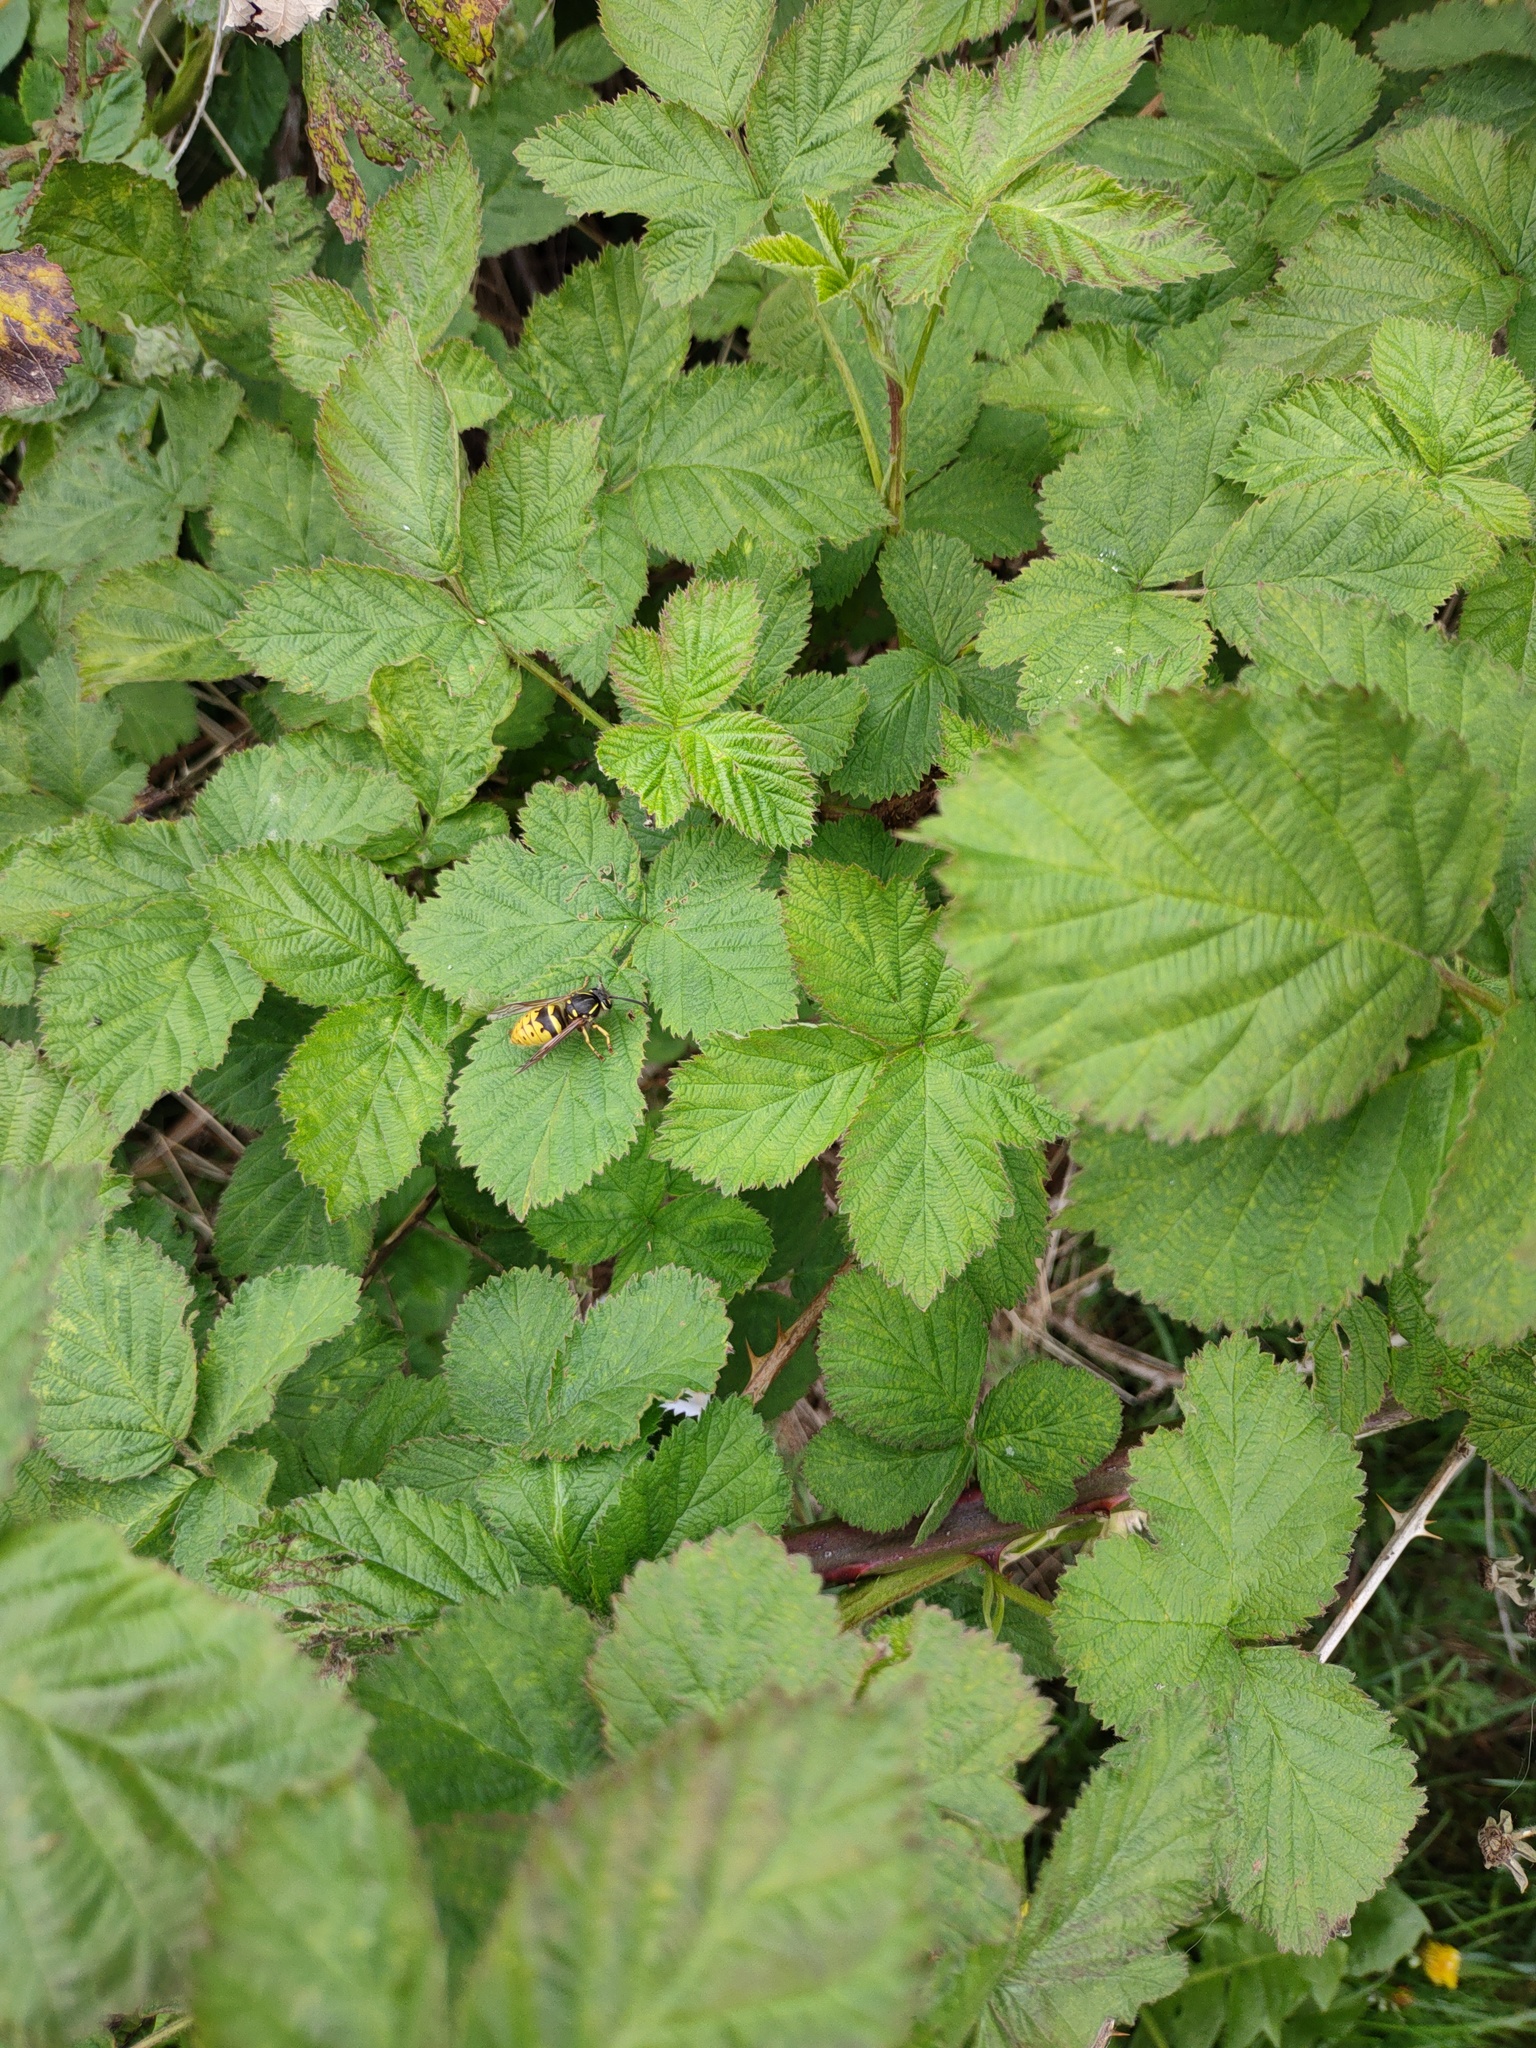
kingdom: Animalia
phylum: Arthropoda
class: Insecta
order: Hymenoptera
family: Vespidae
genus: Vespula
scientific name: Vespula vulgaris
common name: Common wasp
